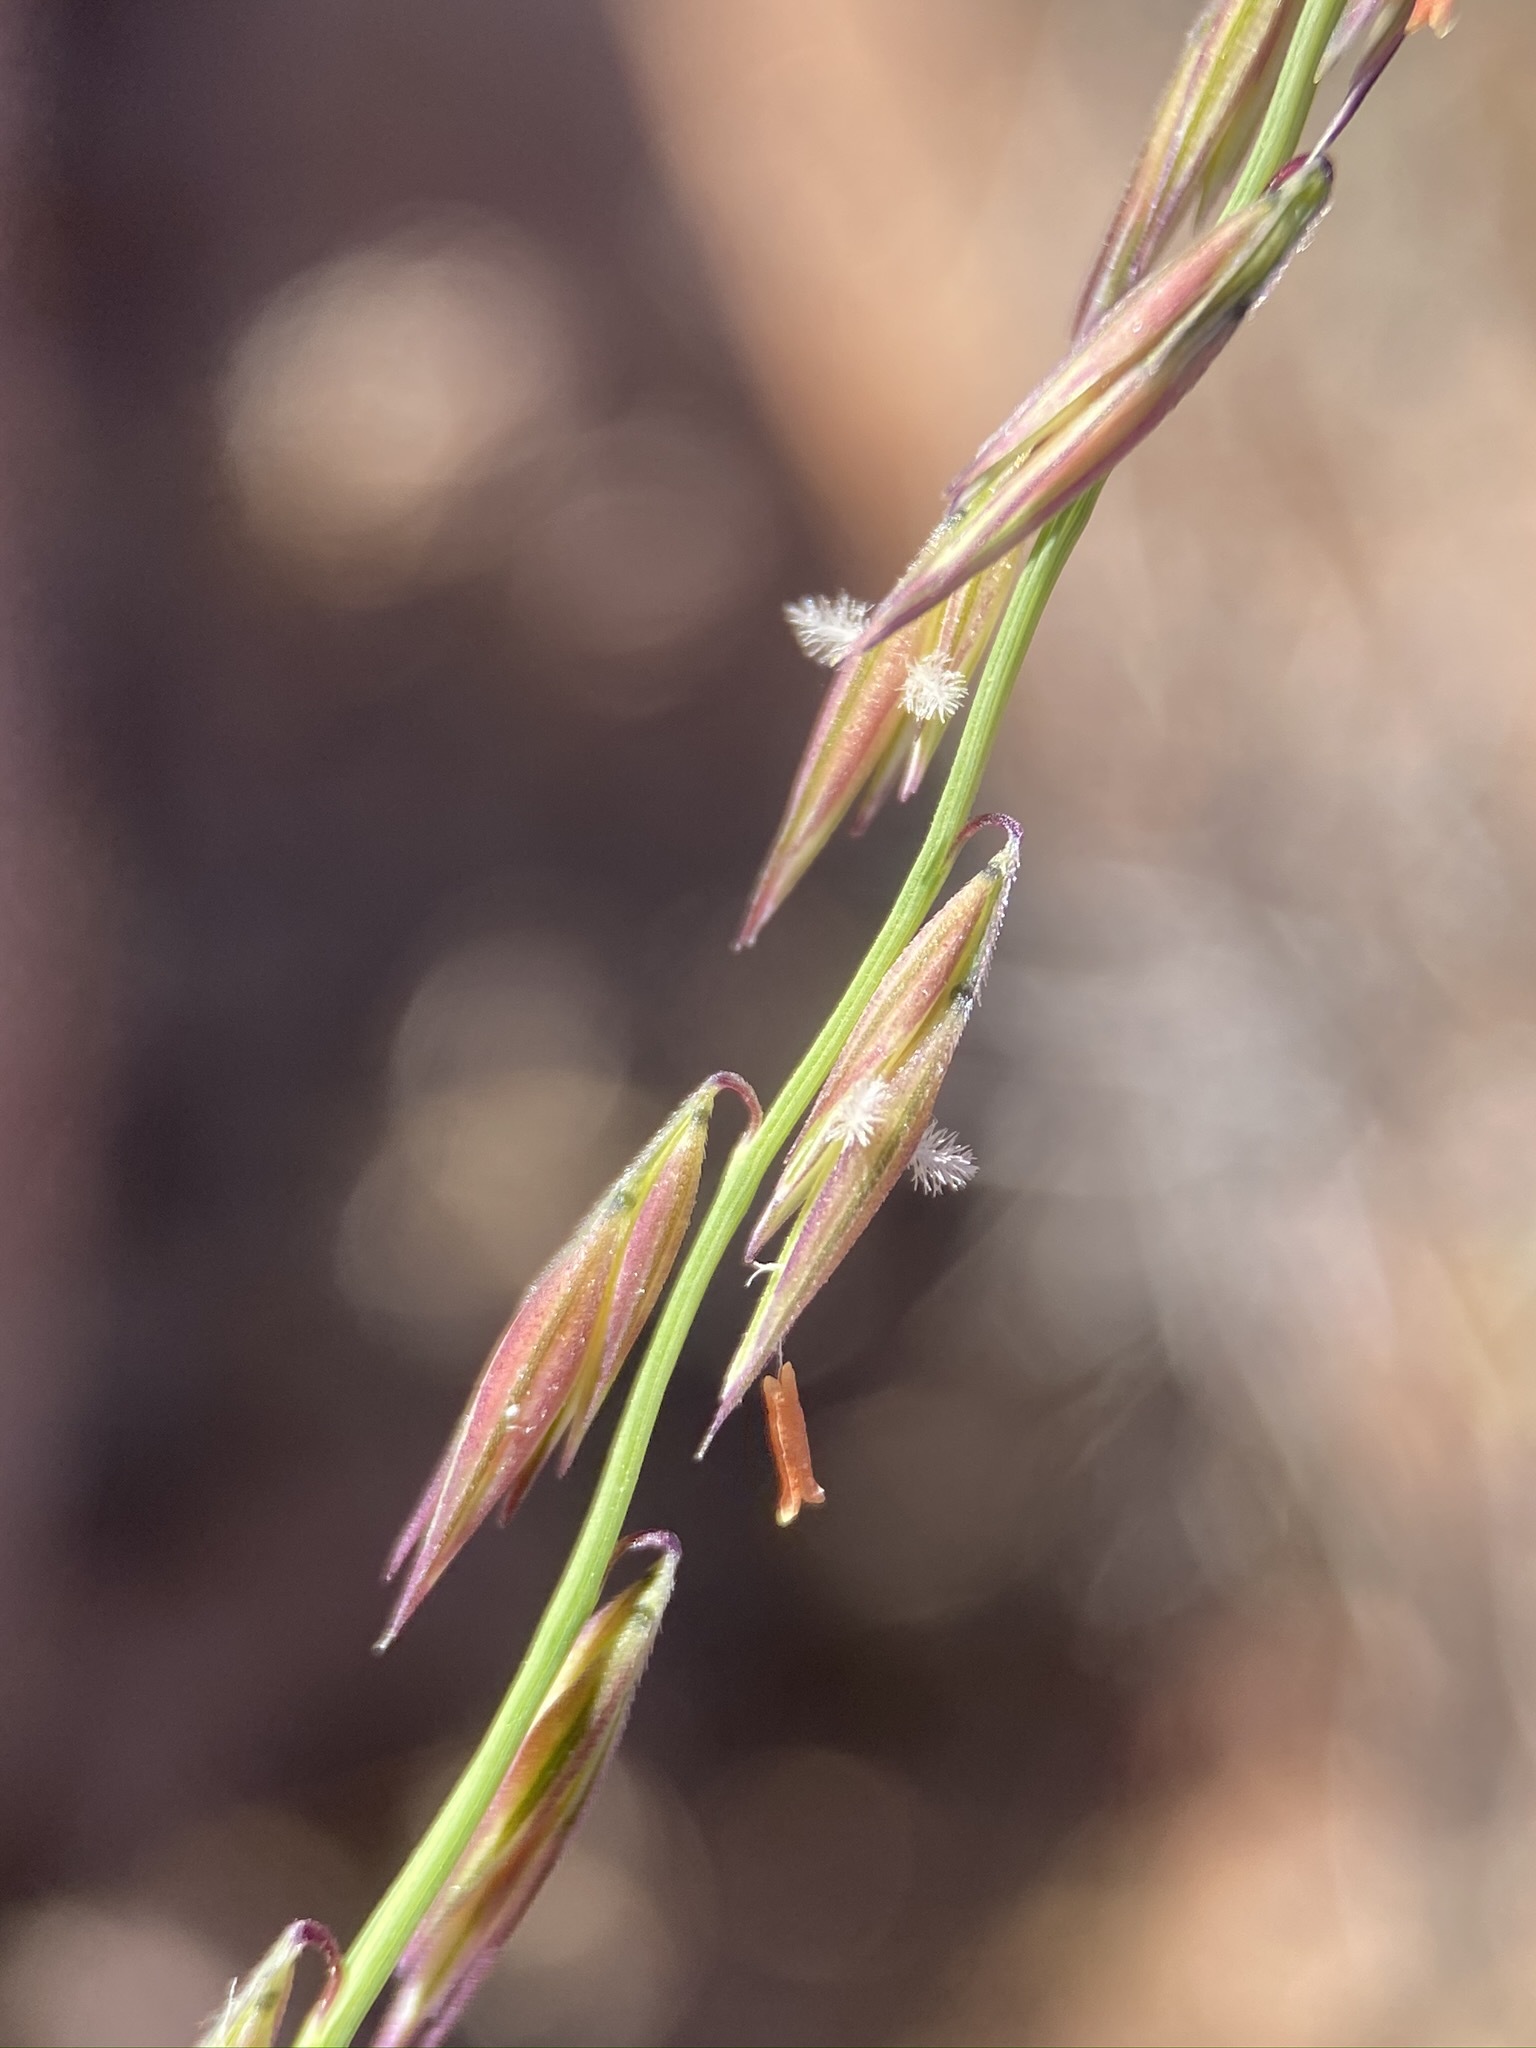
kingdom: Plantae
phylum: Tracheophyta
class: Liliopsida
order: Poales
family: Poaceae
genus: Bouteloua
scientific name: Bouteloua curtipendula
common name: Side-oats grama
